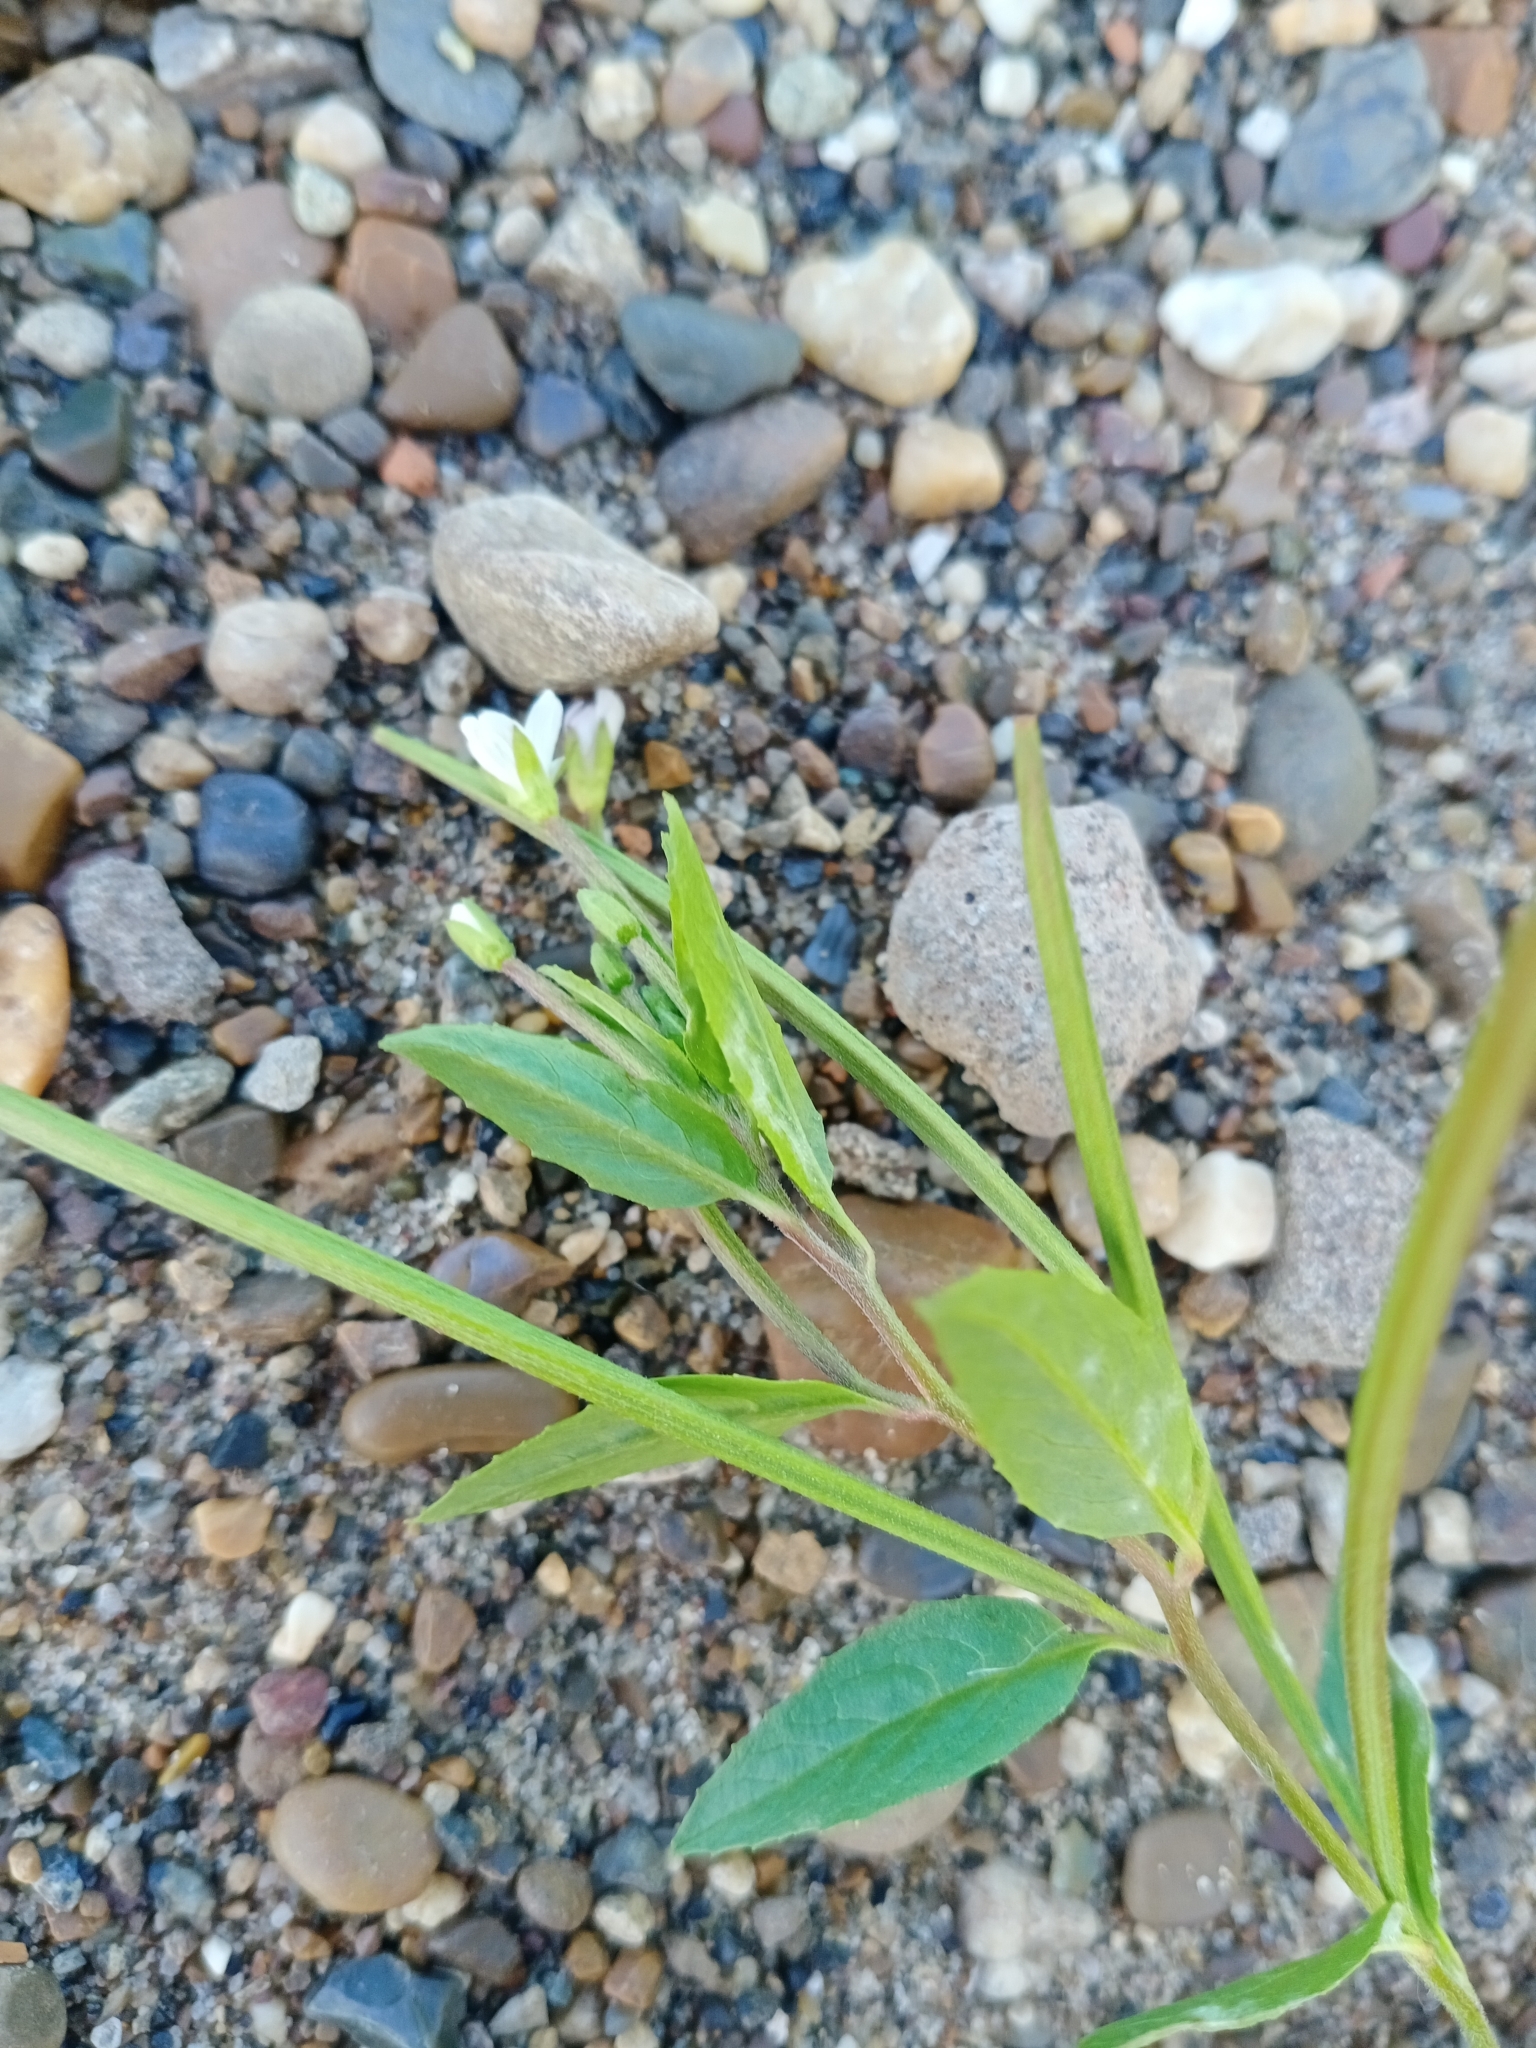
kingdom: Plantae
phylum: Tracheophyta
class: Magnoliopsida
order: Myrtales
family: Onagraceae
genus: Epilobium
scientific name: Epilobium pseudorubescens
